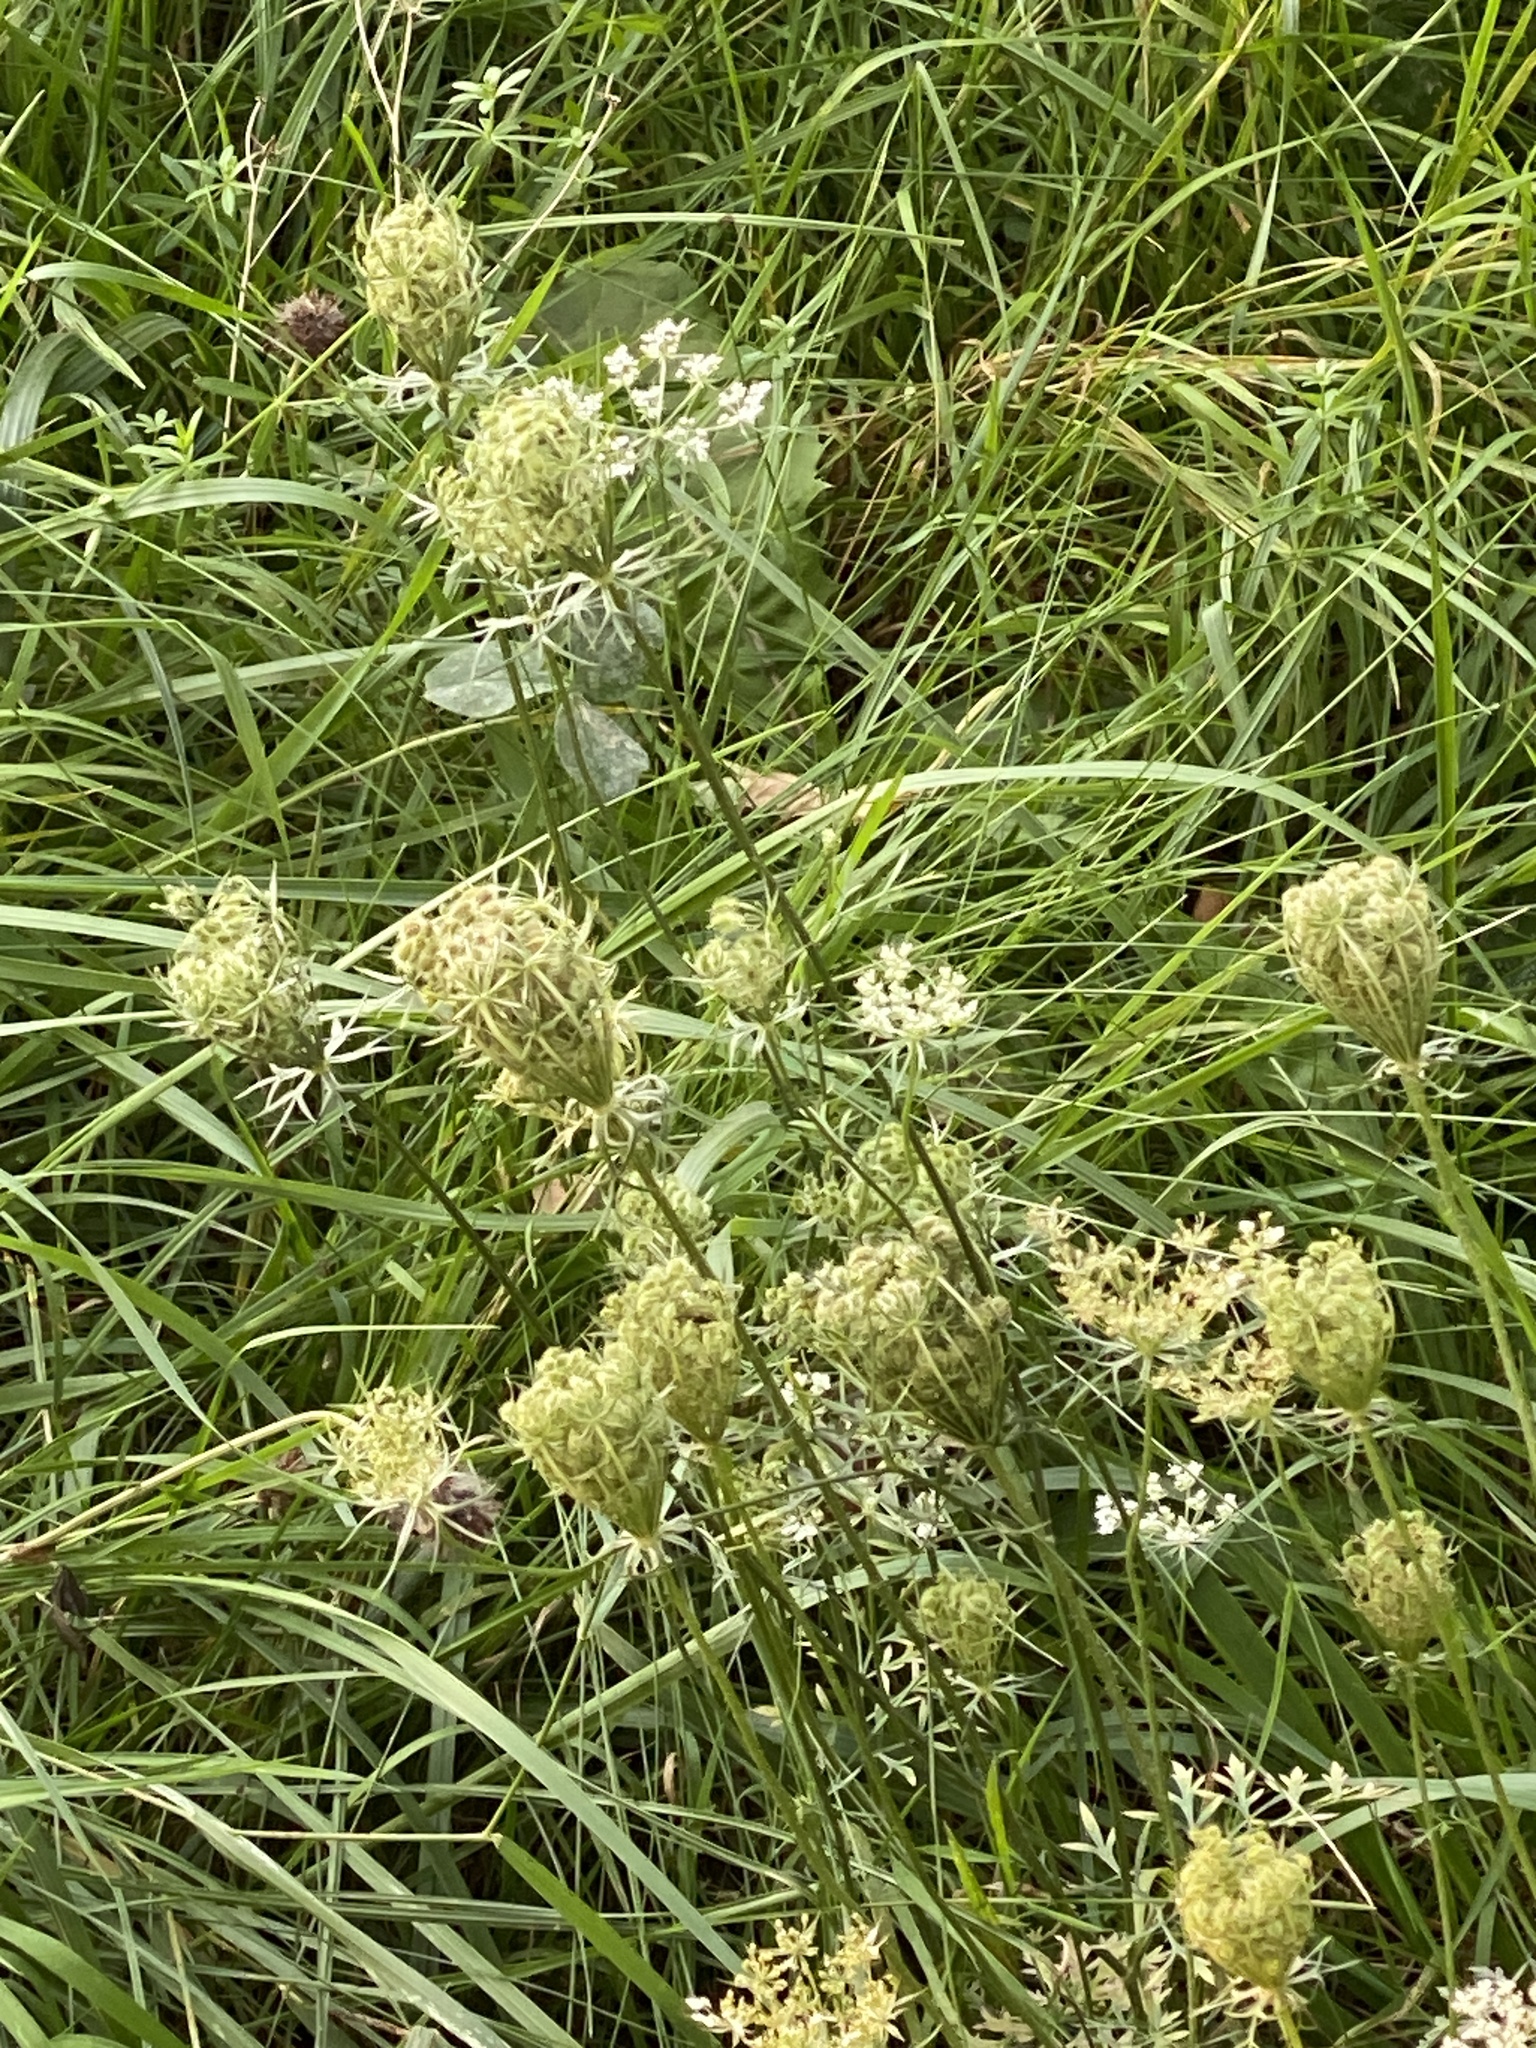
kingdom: Plantae
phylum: Tracheophyta
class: Magnoliopsida
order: Apiales
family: Apiaceae
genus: Daucus
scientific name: Daucus carota
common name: Wild carrot
